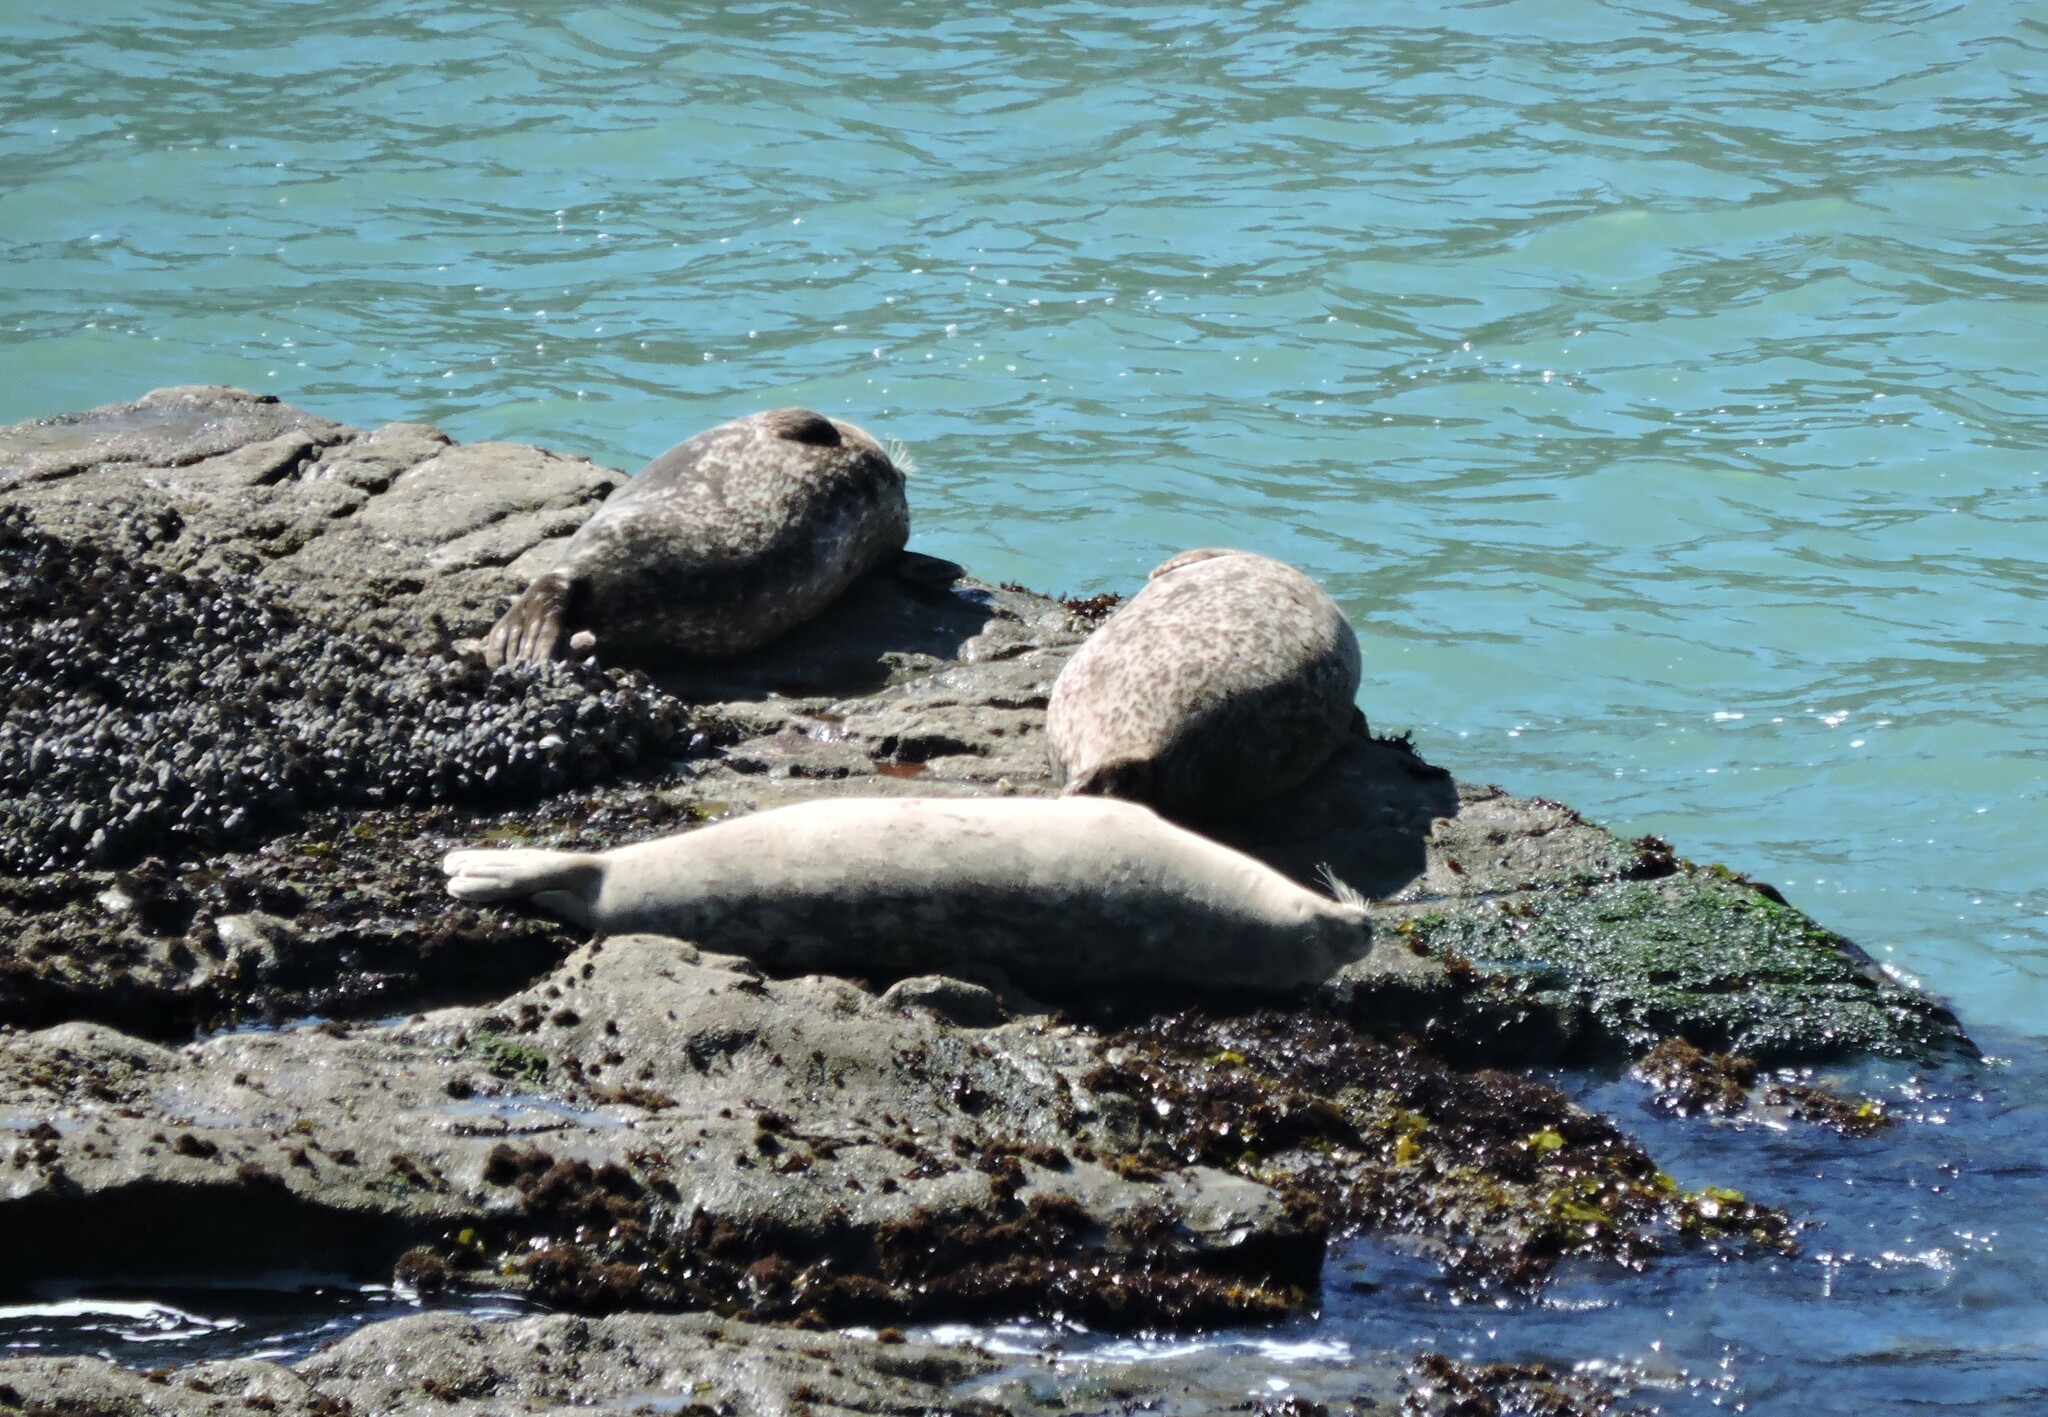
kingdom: Animalia
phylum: Chordata
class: Mammalia
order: Carnivora
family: Phocidae
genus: Phoca
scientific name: Phoca vitulina
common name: Harbor seal
